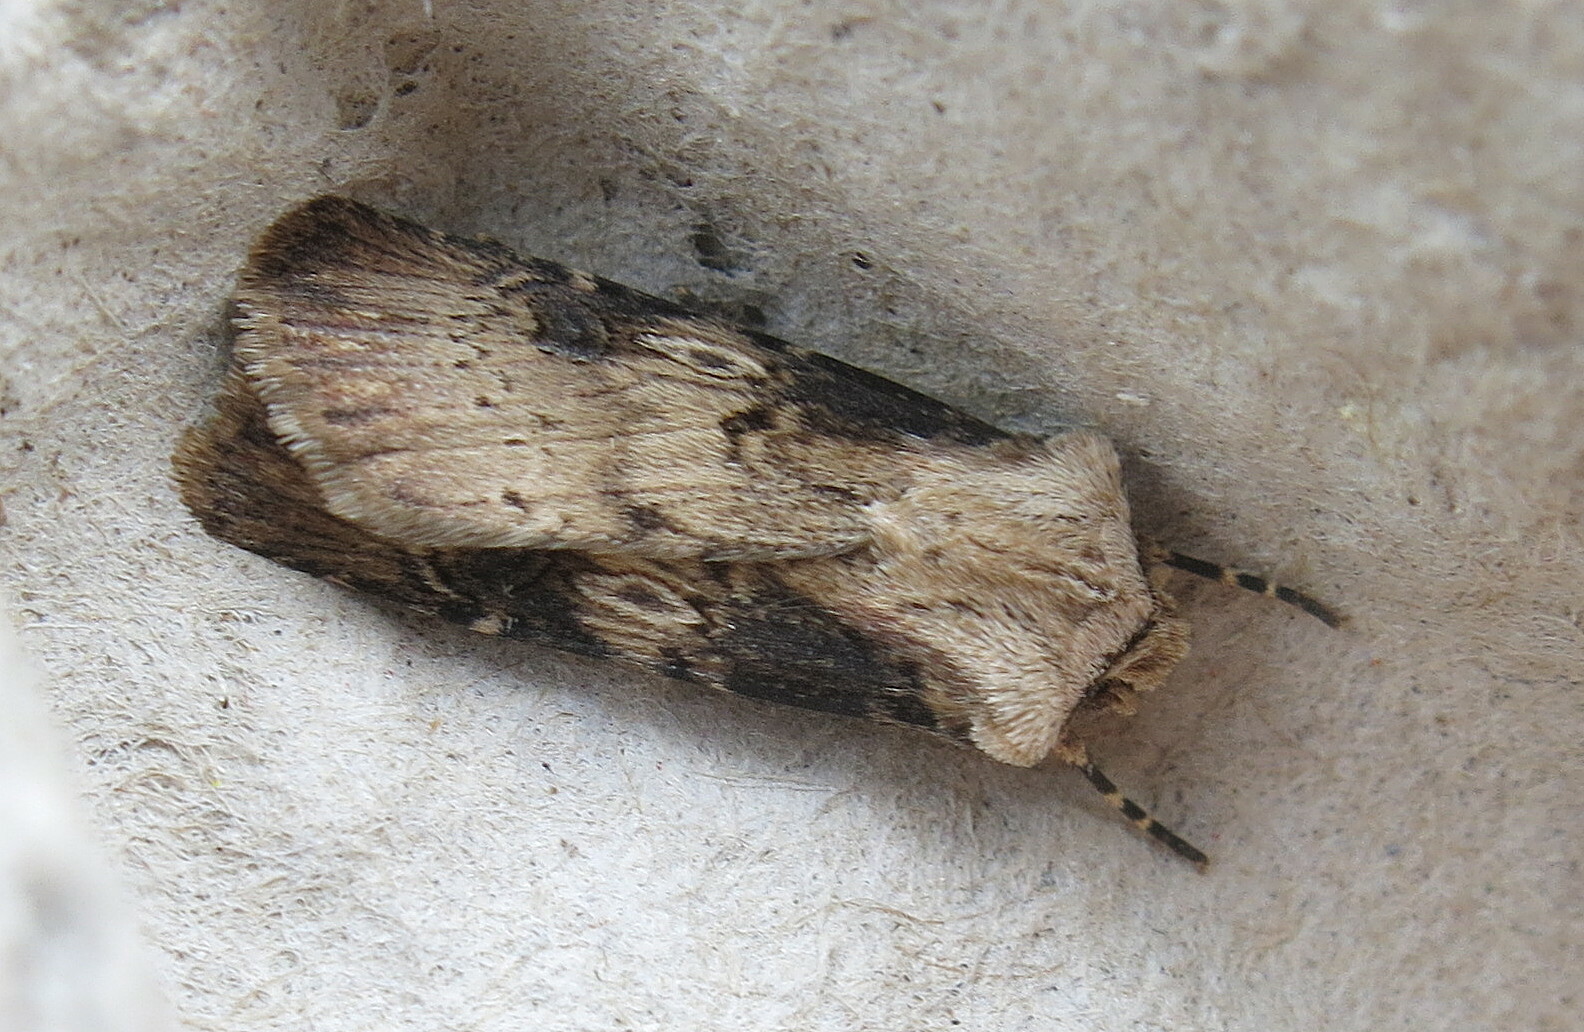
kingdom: Animalia
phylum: Arthropoda
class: Insecta
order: Lepidoptera
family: Noctuidae
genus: Agrotis
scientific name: Agrotis puta
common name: Shuttle-shaped dart
